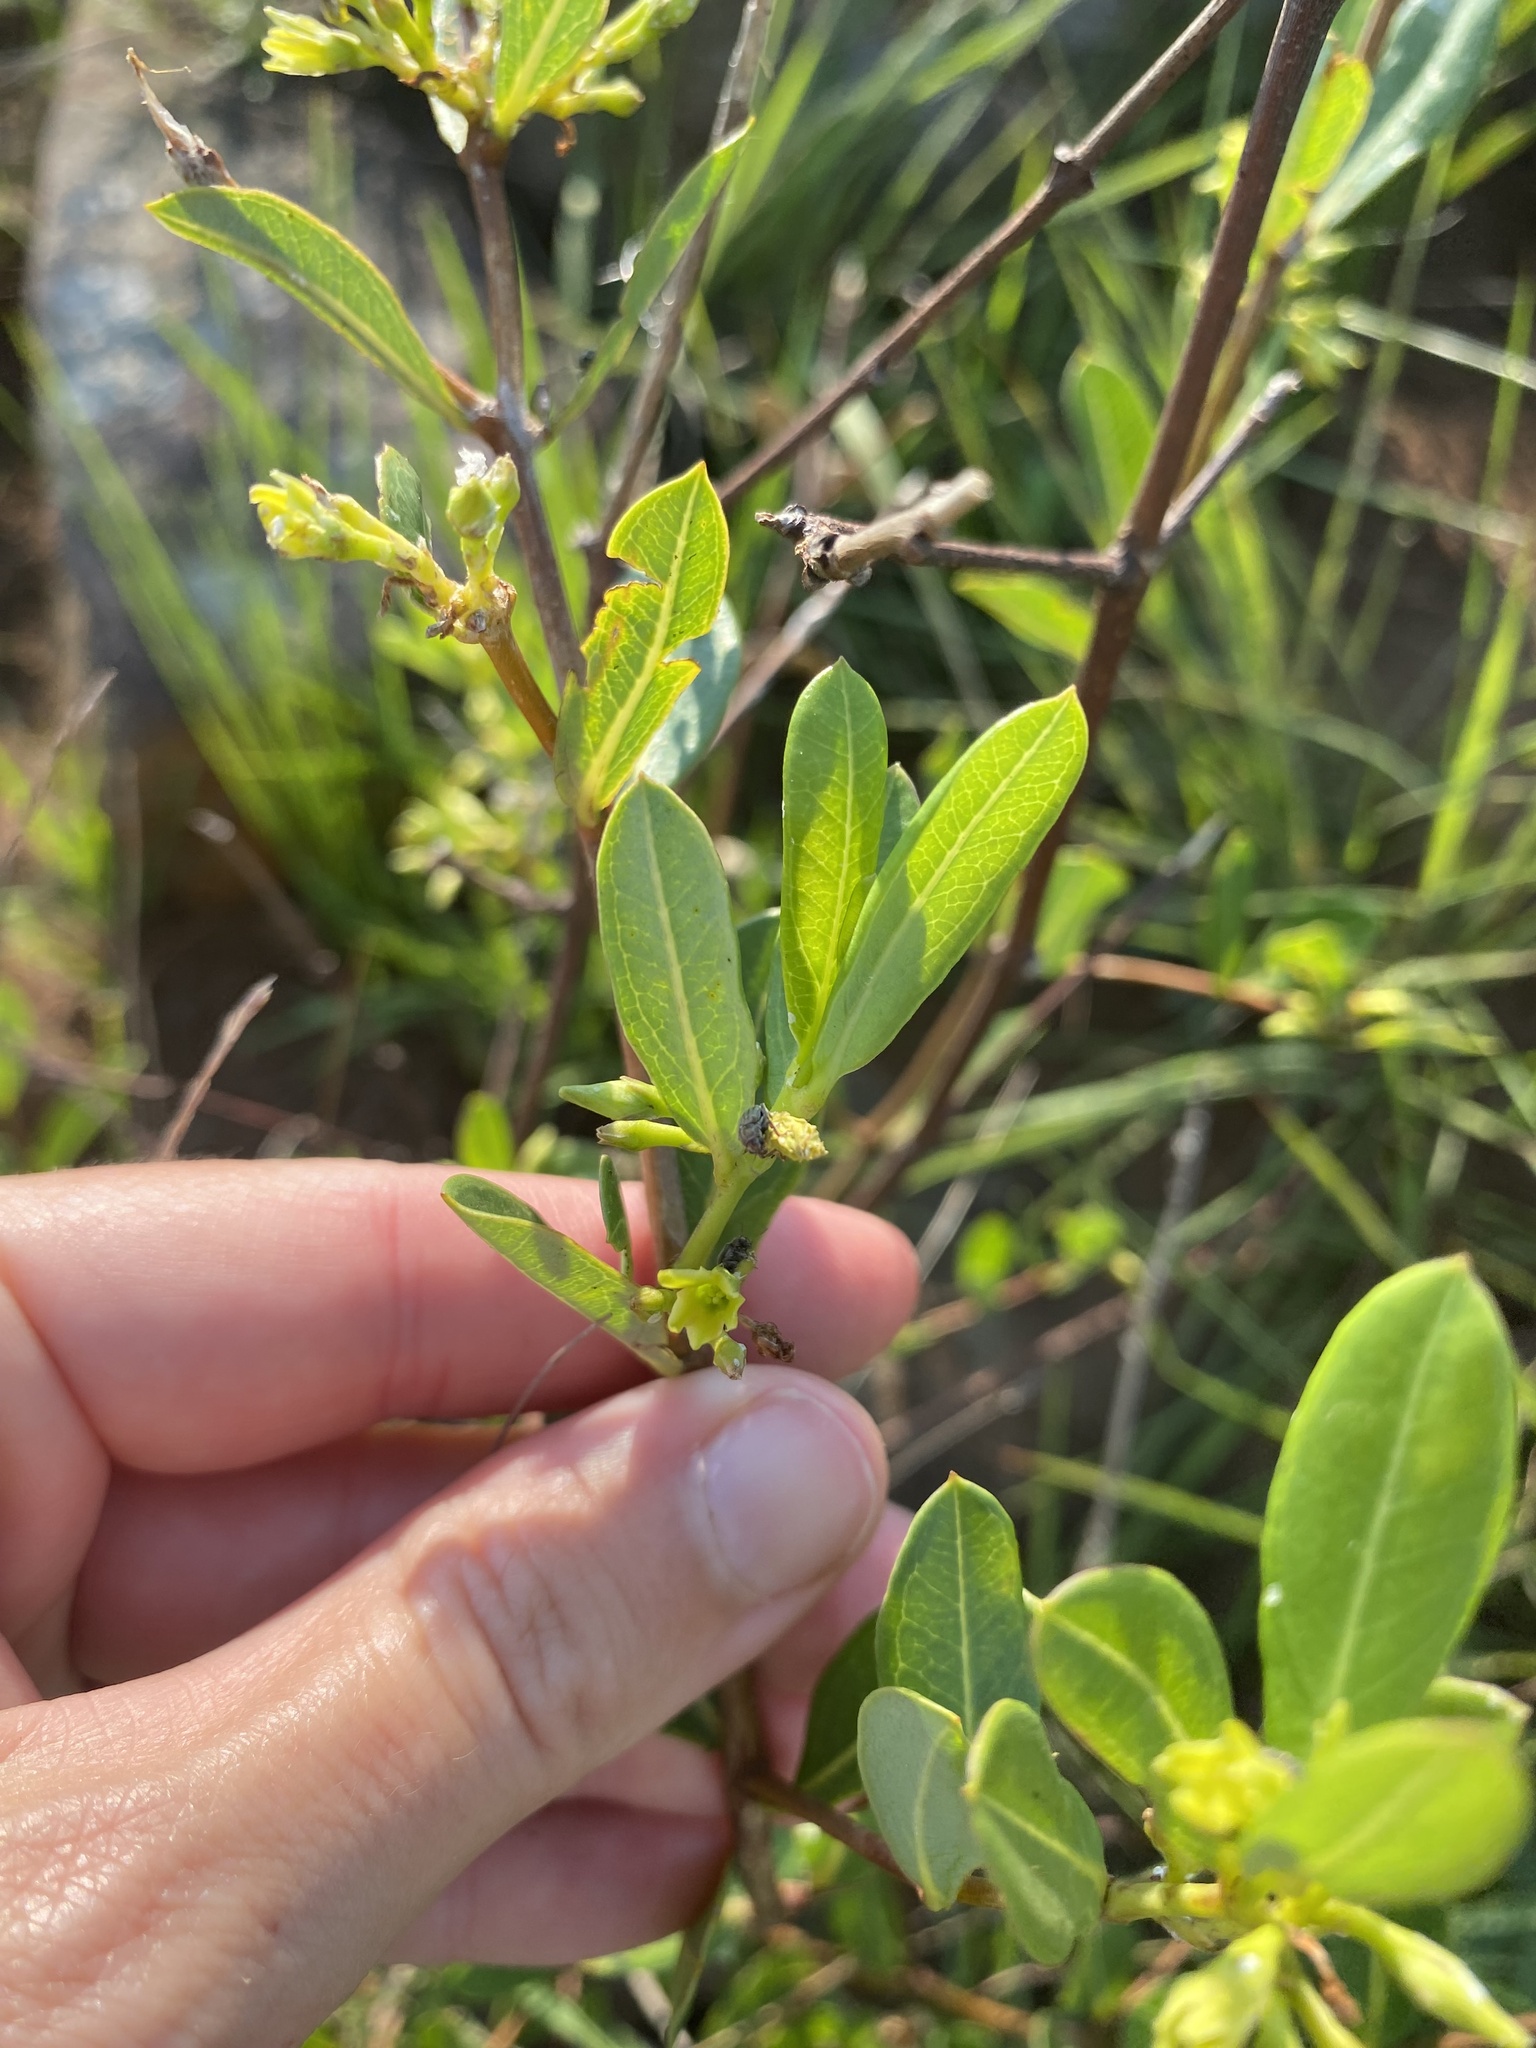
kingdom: Plantae
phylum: Tracheophyta
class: Magnoliopsida
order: Gentianales
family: Apocynaceae
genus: Cryptolepis
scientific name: Cryptolepis oblongifolia
